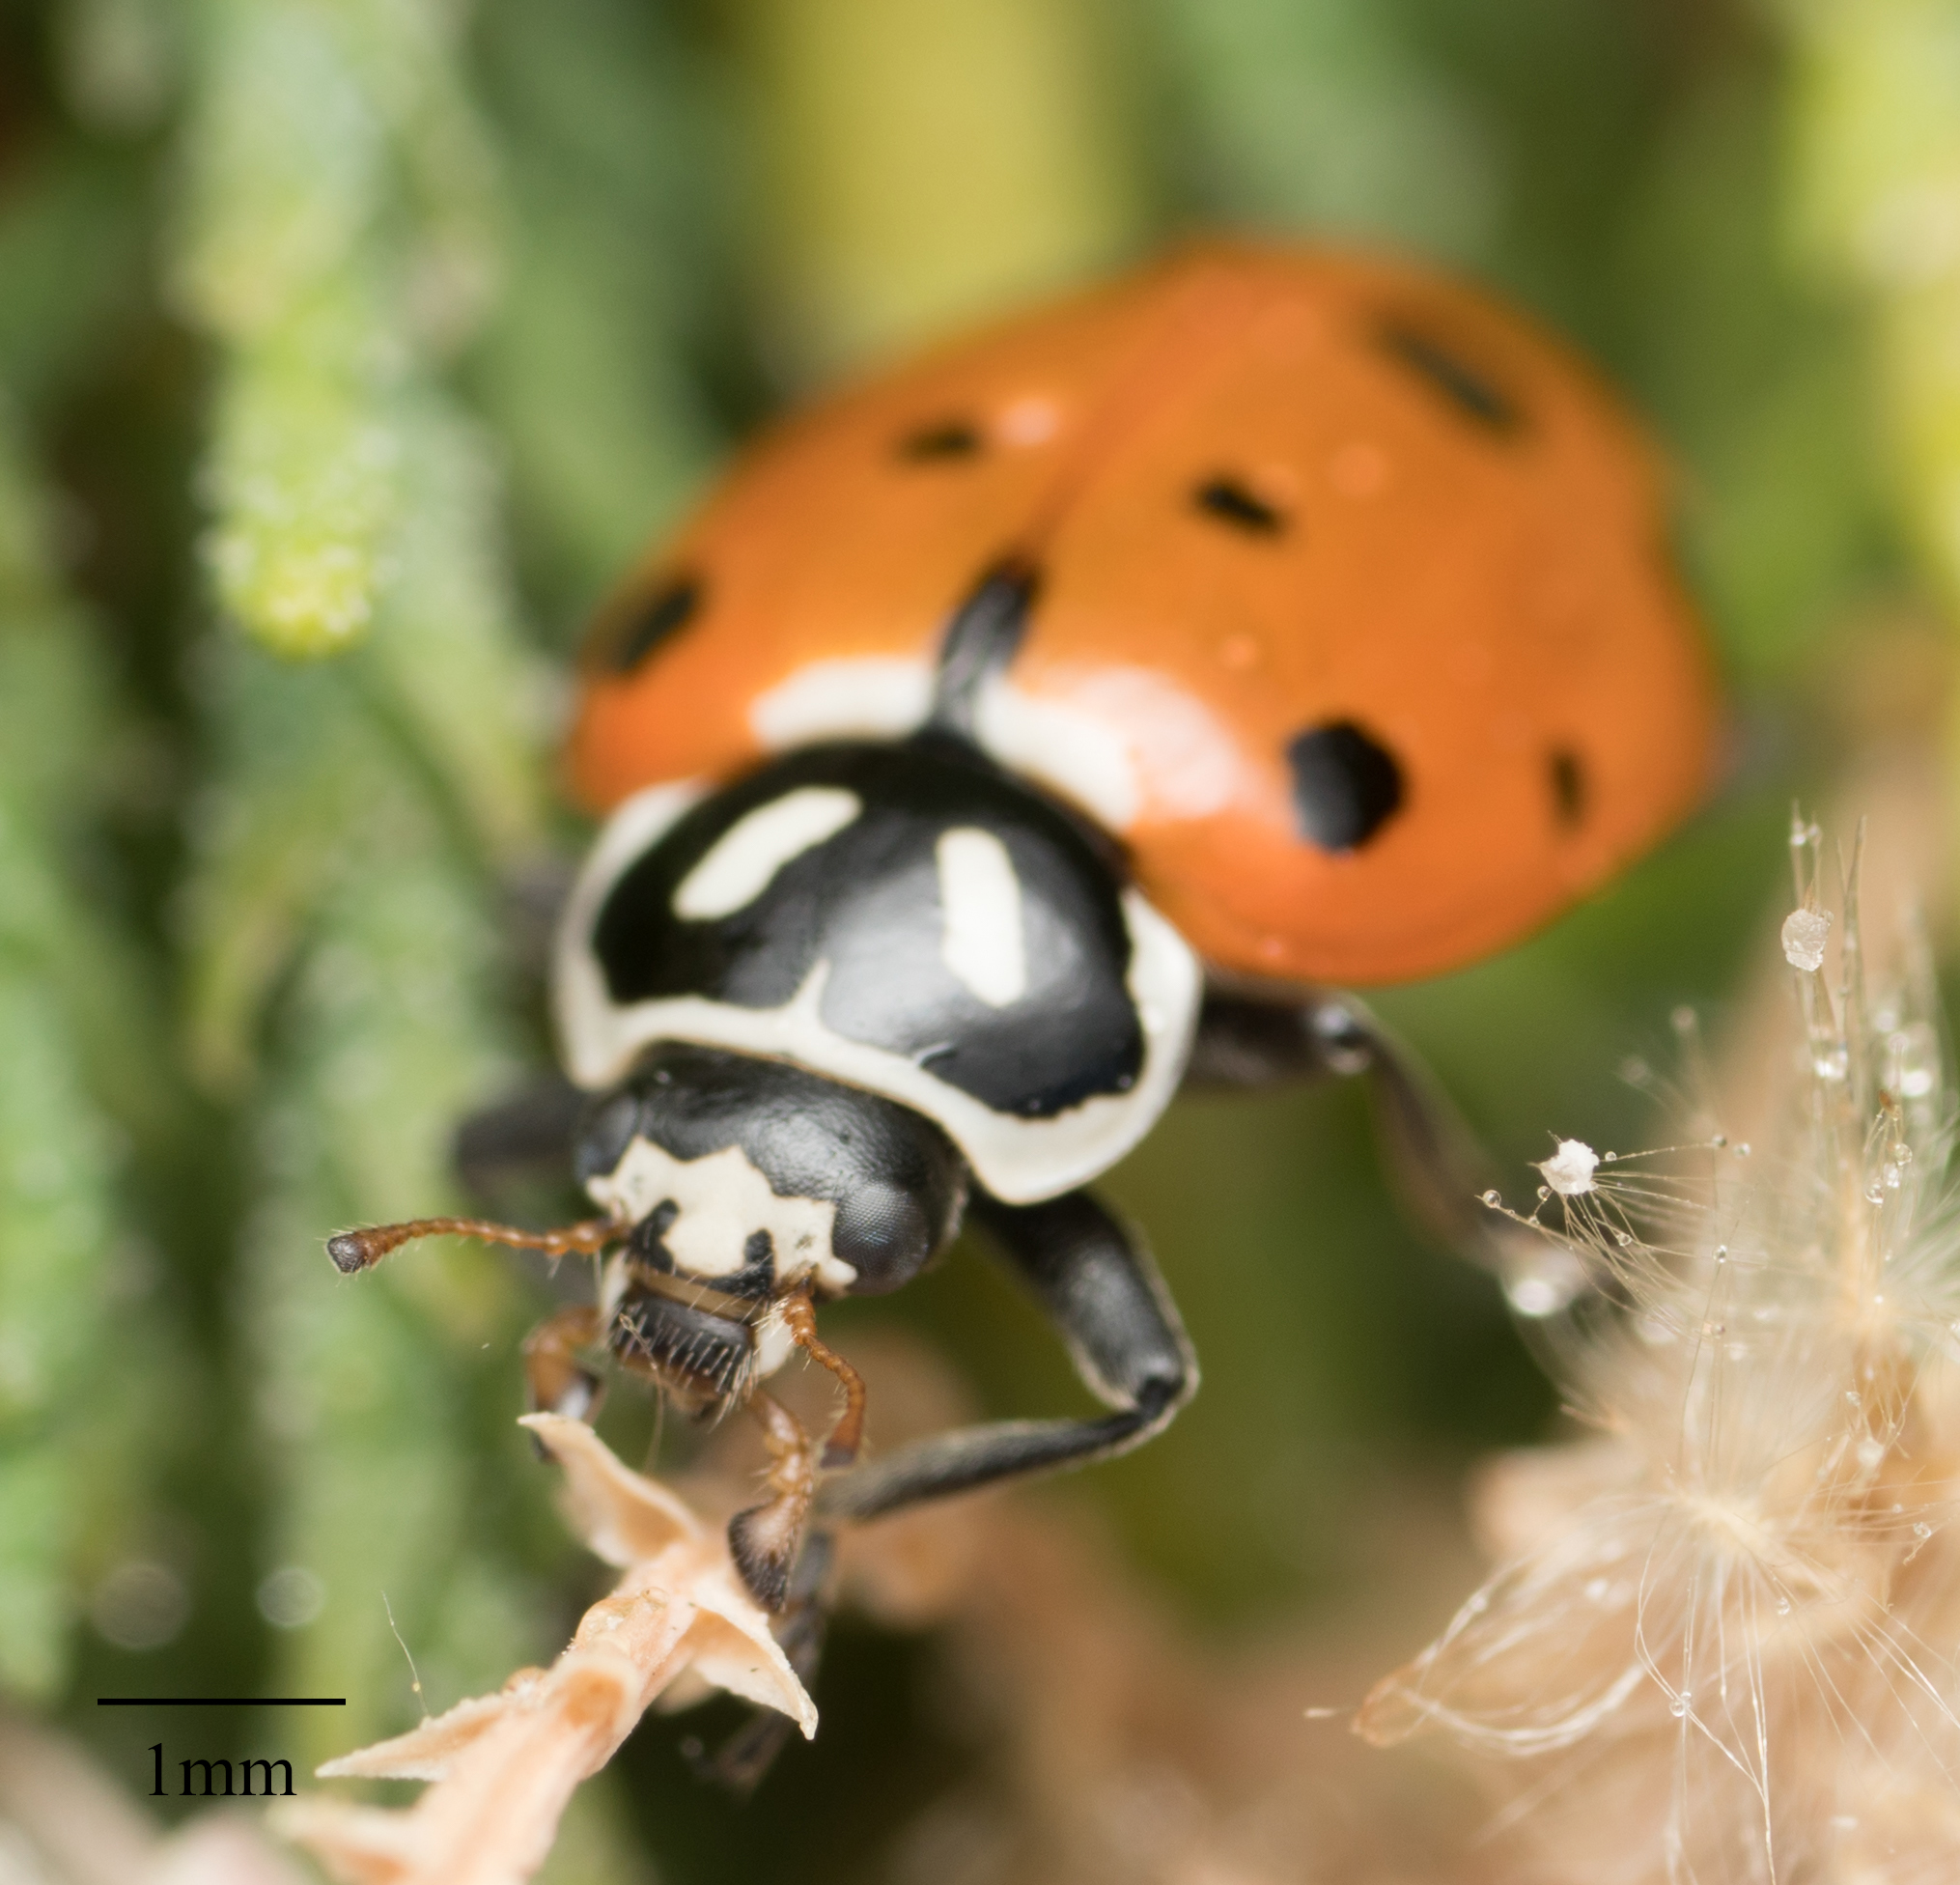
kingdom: Animalia
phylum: Arthropoda
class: Insecta
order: Coleoptera
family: Coccinellidae
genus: Hippodamia
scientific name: Hippodamia convergens
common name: Convergent lady beetle
